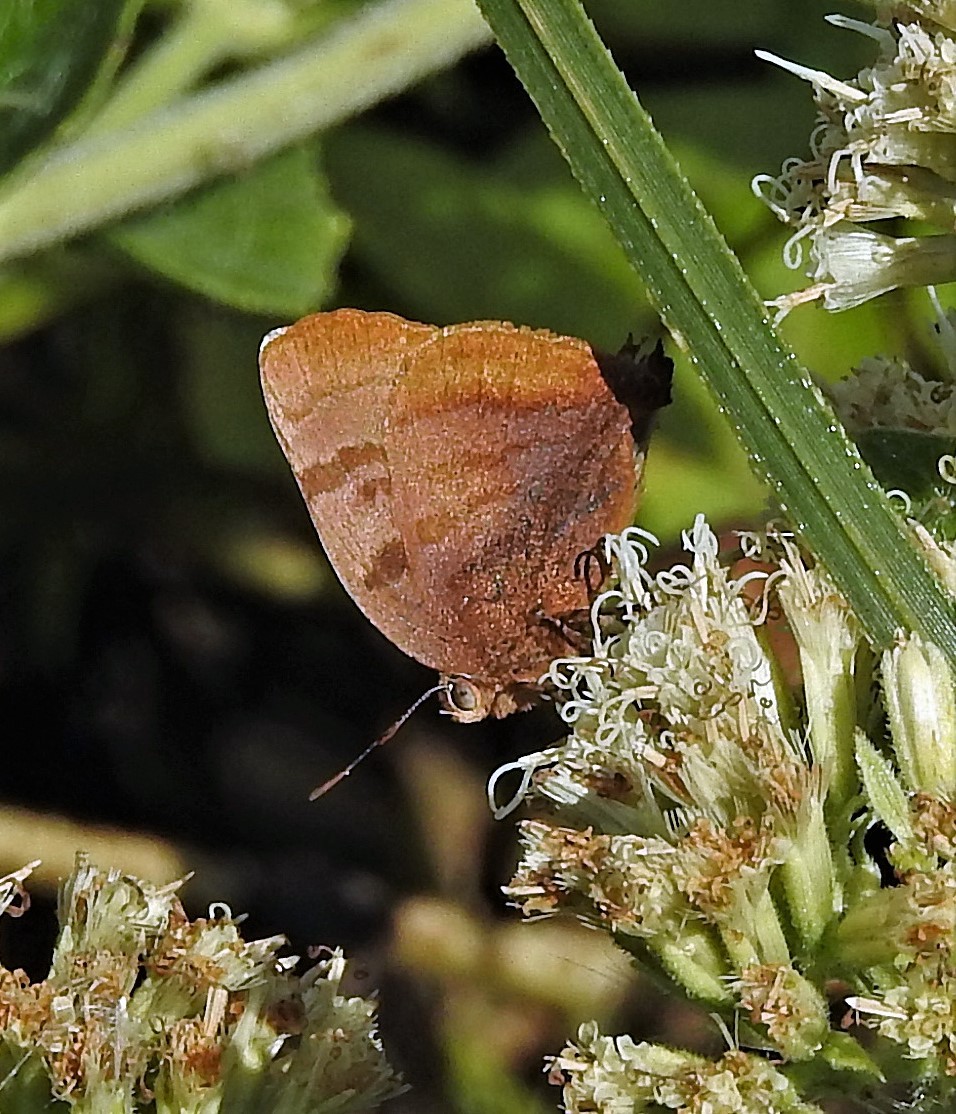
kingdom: Animalia
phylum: Arthropoda
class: Insecta
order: Lepidoptera
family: Lycaenidae
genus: Thecla
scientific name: Thecla marius
